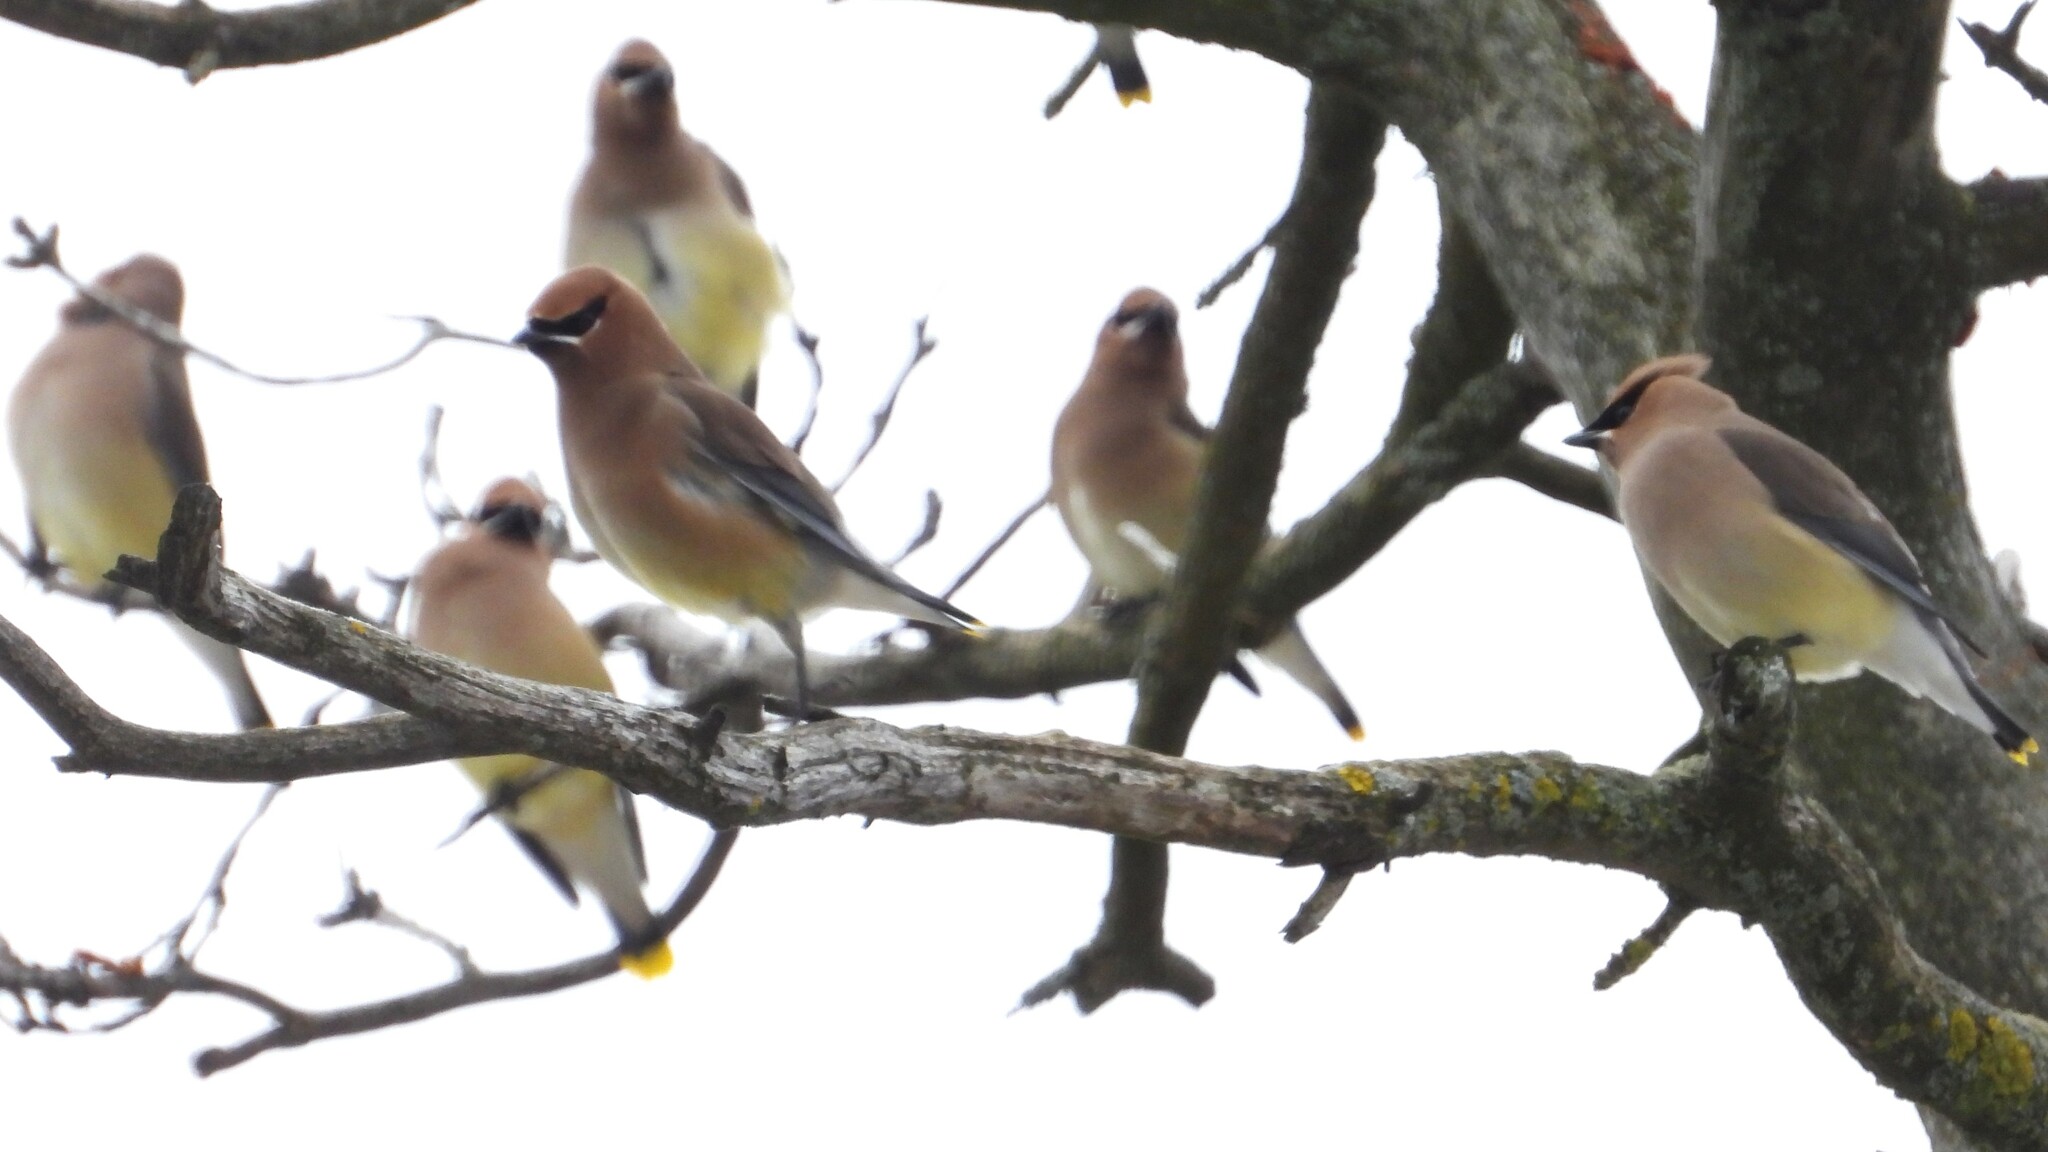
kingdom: Animalia
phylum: Chordata
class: Aves
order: Passeriformes
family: Bombycillidae
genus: Bombycilla
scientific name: Bombycilla cedrorum
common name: Cedar waxwing
